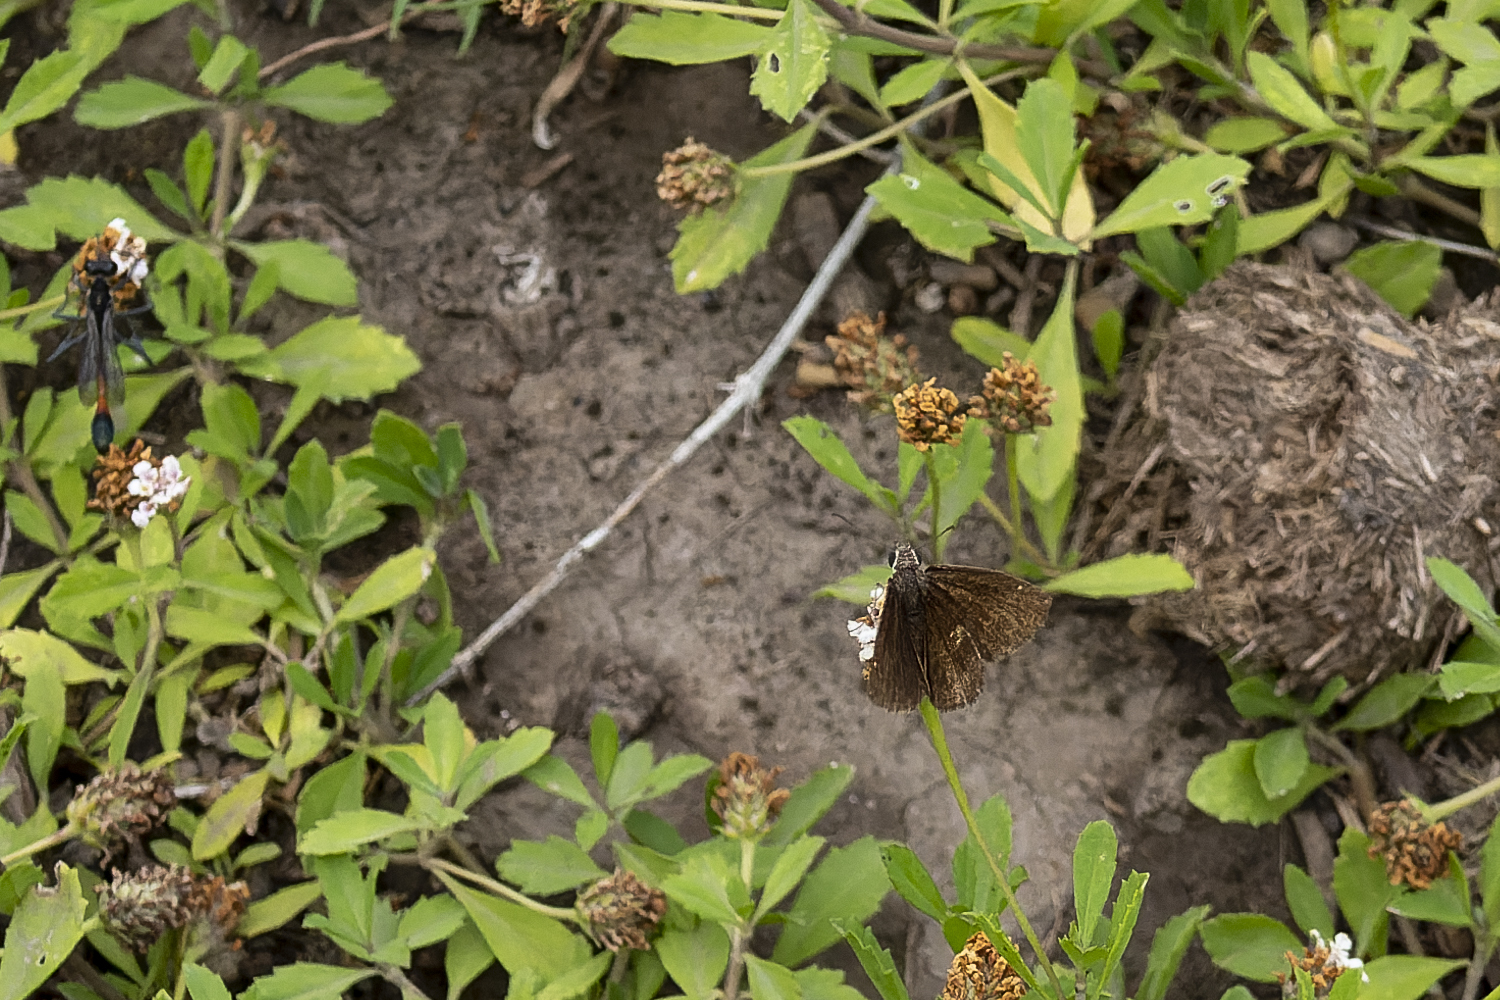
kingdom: Animalia
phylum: Arthropoda
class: Insecta
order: Lepidoptera
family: Hesperiidae
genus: Zopyrion
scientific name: Zopyrion evenor
